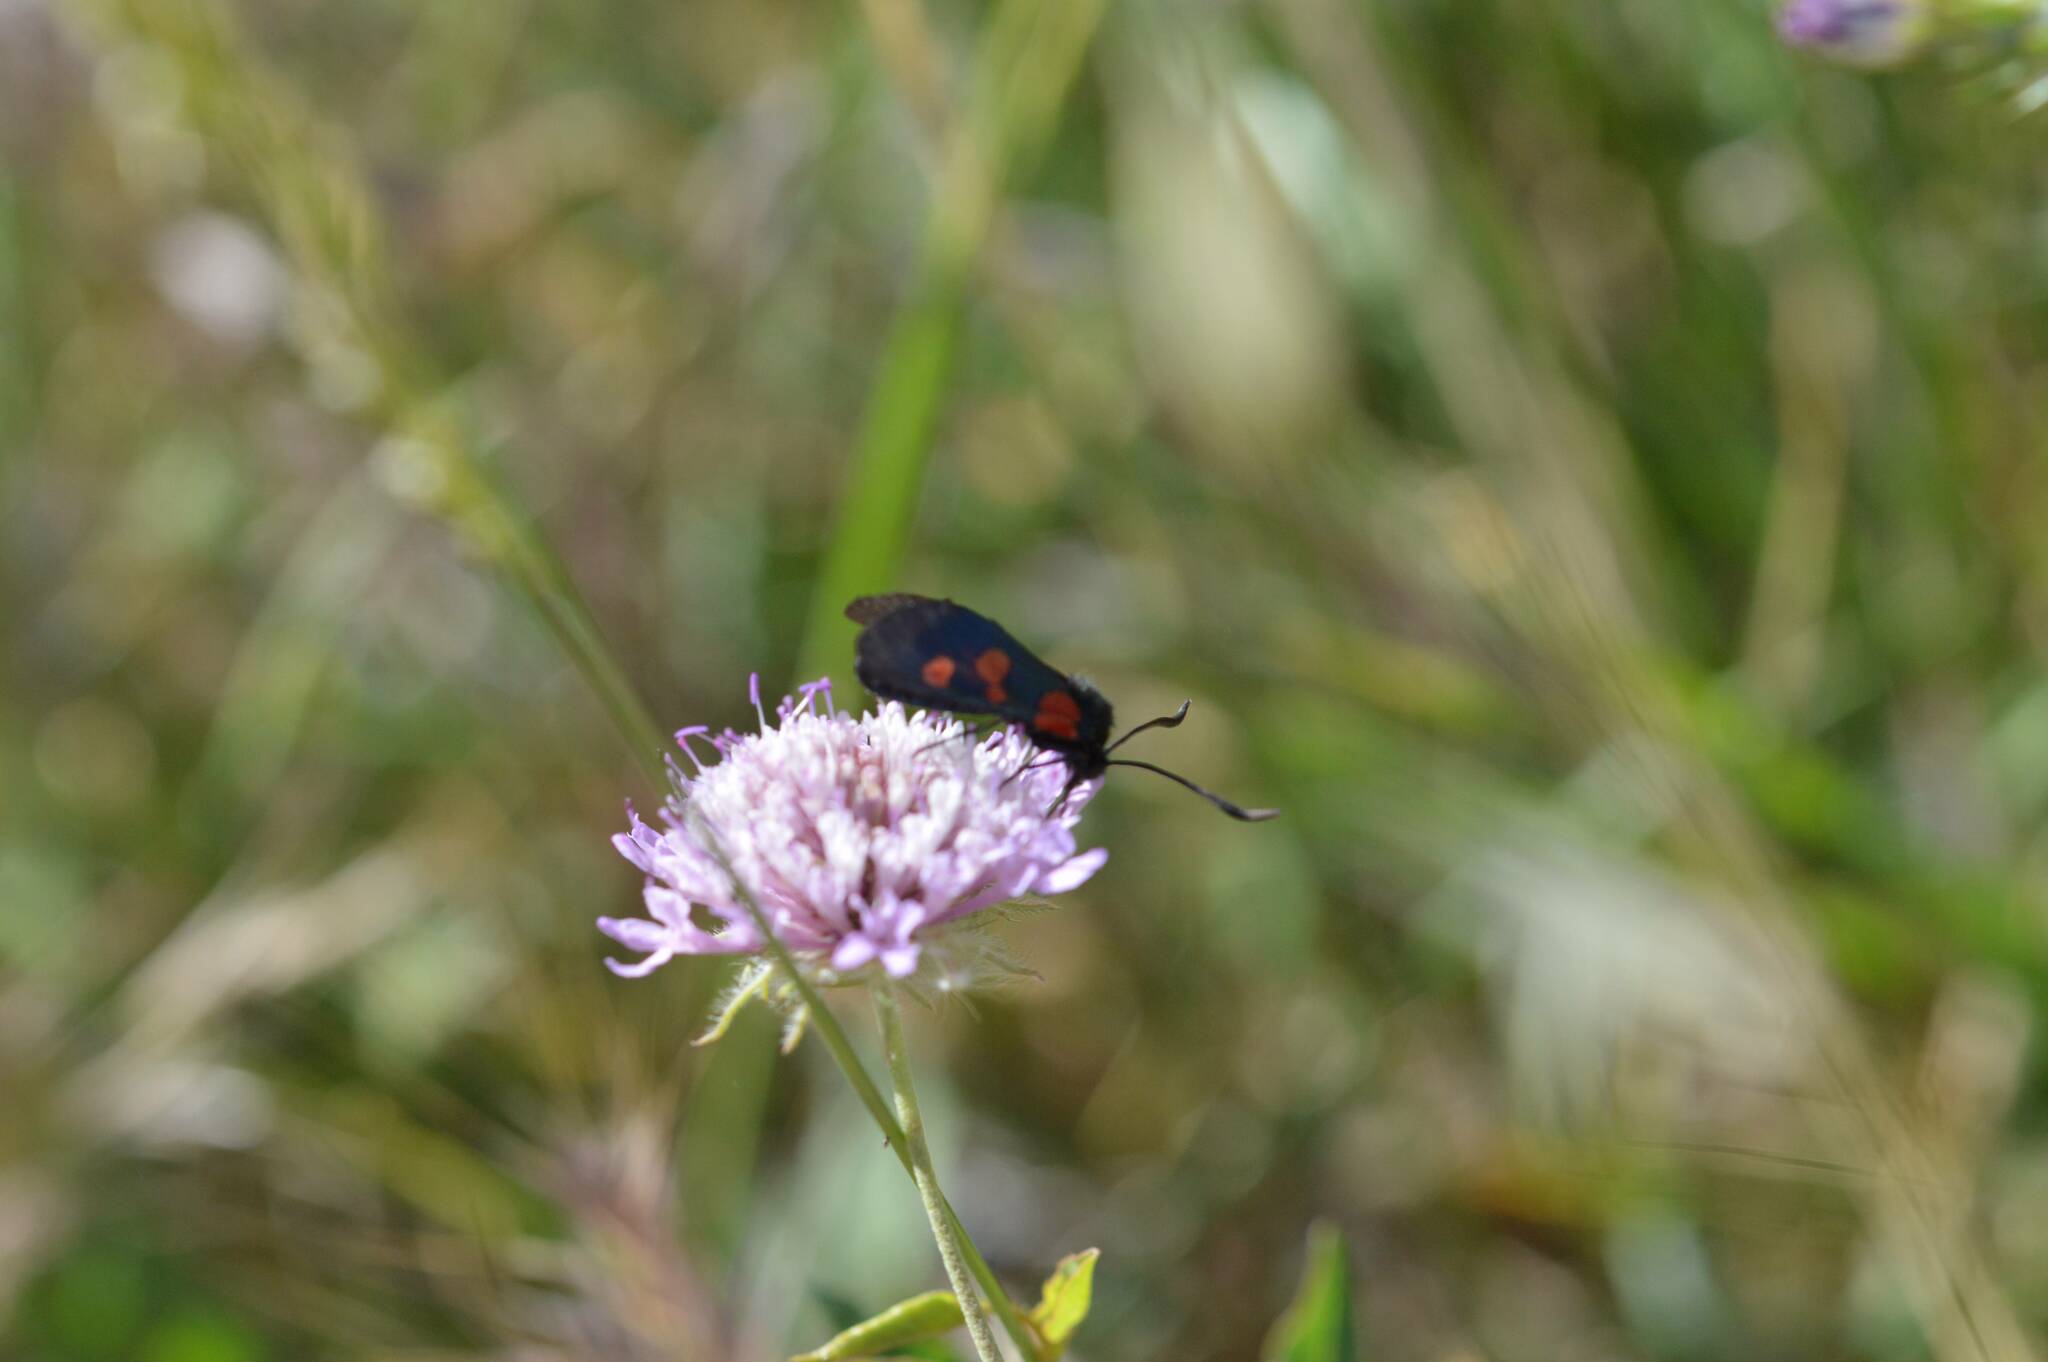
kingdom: Animalia
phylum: Arthropoda
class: Insecta
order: Lepidoptera
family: Zygaenidae
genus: Zygaena
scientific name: Zygaena trifolii
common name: Five-spot burnet
